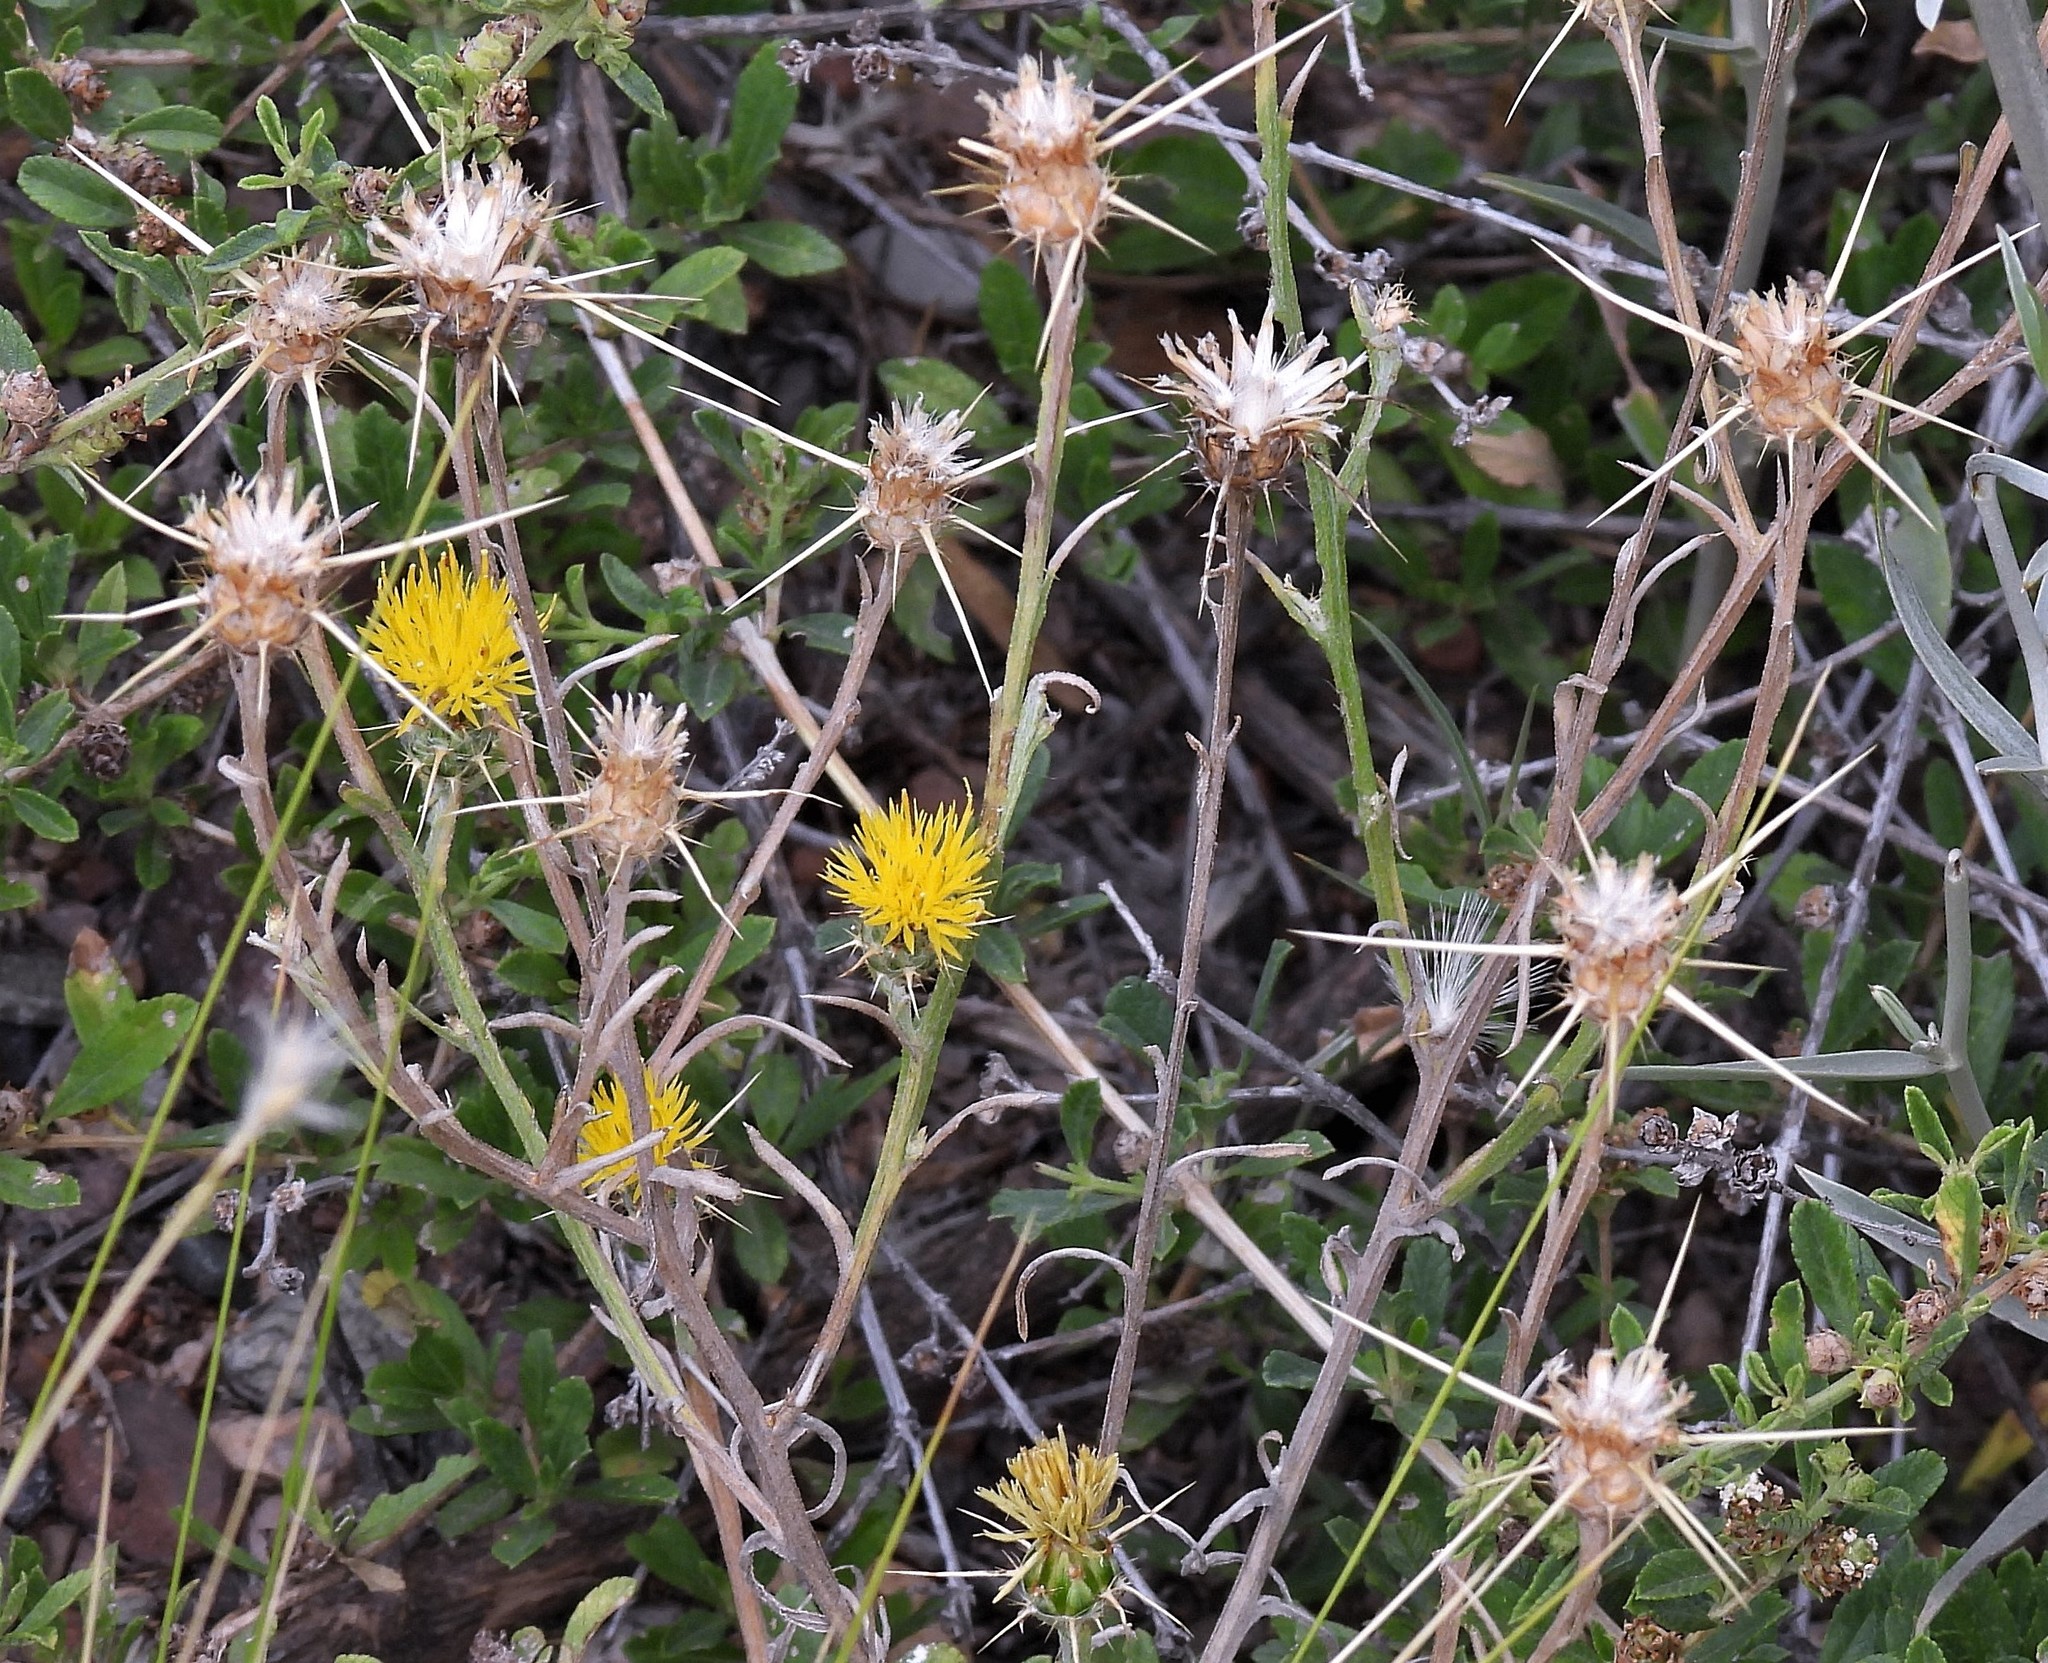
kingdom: Plantae
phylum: Tracheophyta
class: Magnoliopsida
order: Asterales
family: Asteraceae
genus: Centaurea
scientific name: Centaurea solstitialis
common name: Yellow star-thistle
